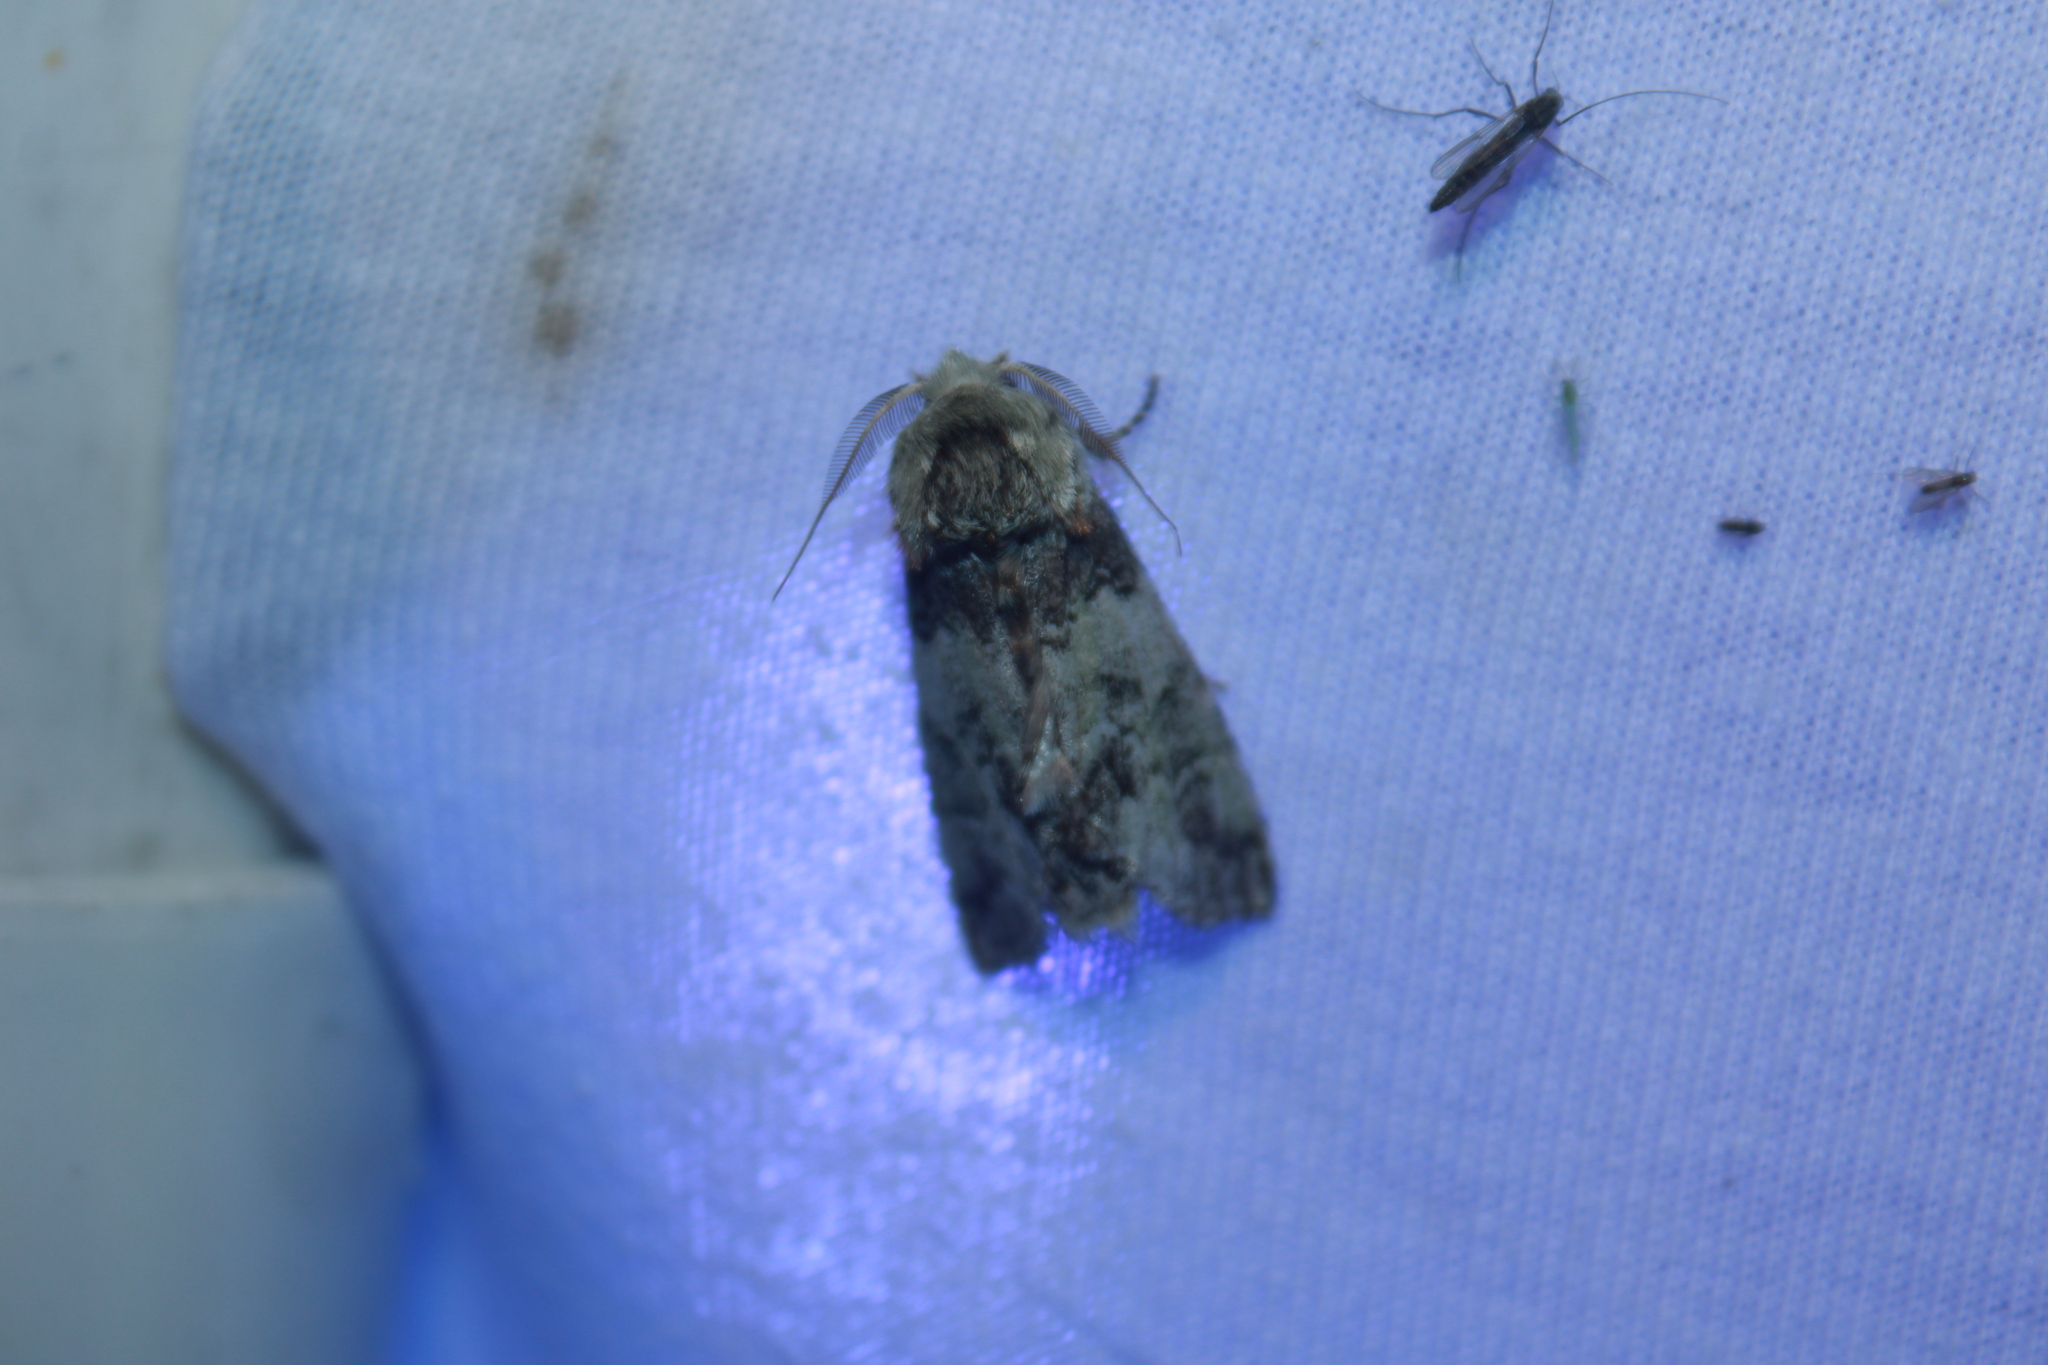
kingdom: Animalia
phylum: Arthropoda
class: Insecta
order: Lepidoptera
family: Notodontidae
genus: Macrurocampa
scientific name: Macrurocampa marthesia
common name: Mottled prominent
